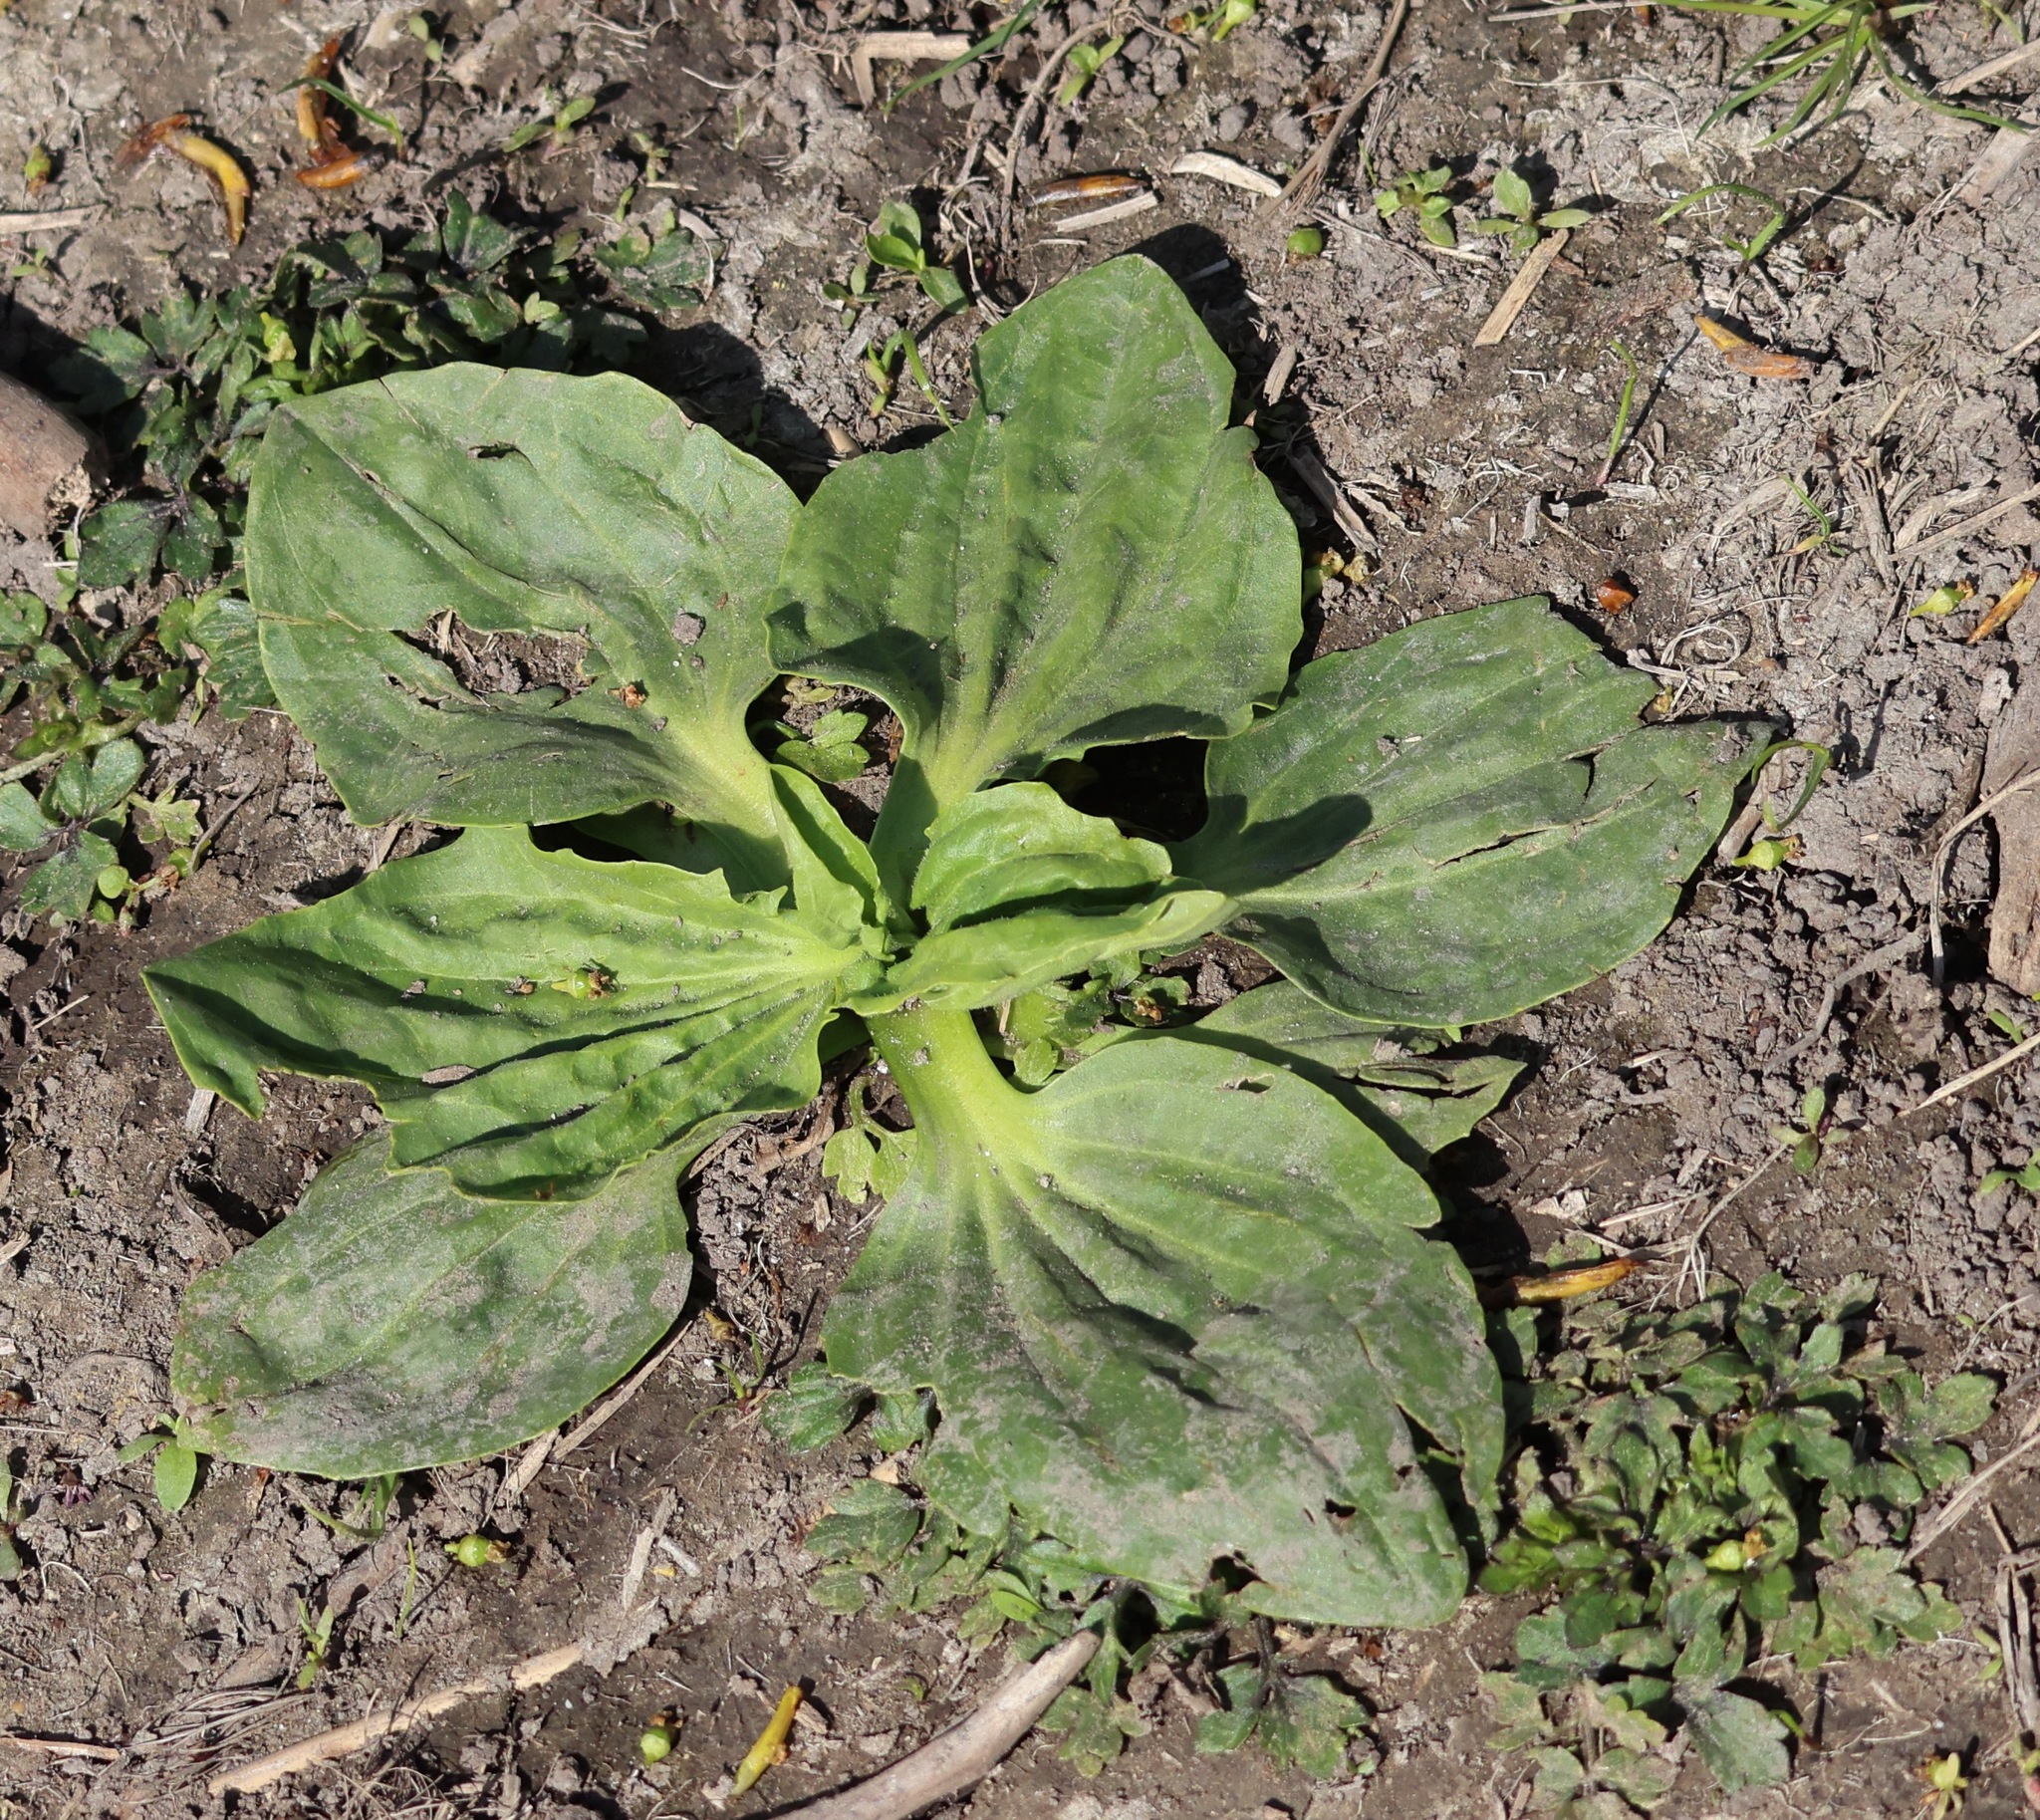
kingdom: Plantae
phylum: Tracheophyta
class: Magnoliopsida
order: Lamiales
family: Plantaginaceae
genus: Plantago
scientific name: Plantago major
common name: Common plantain
